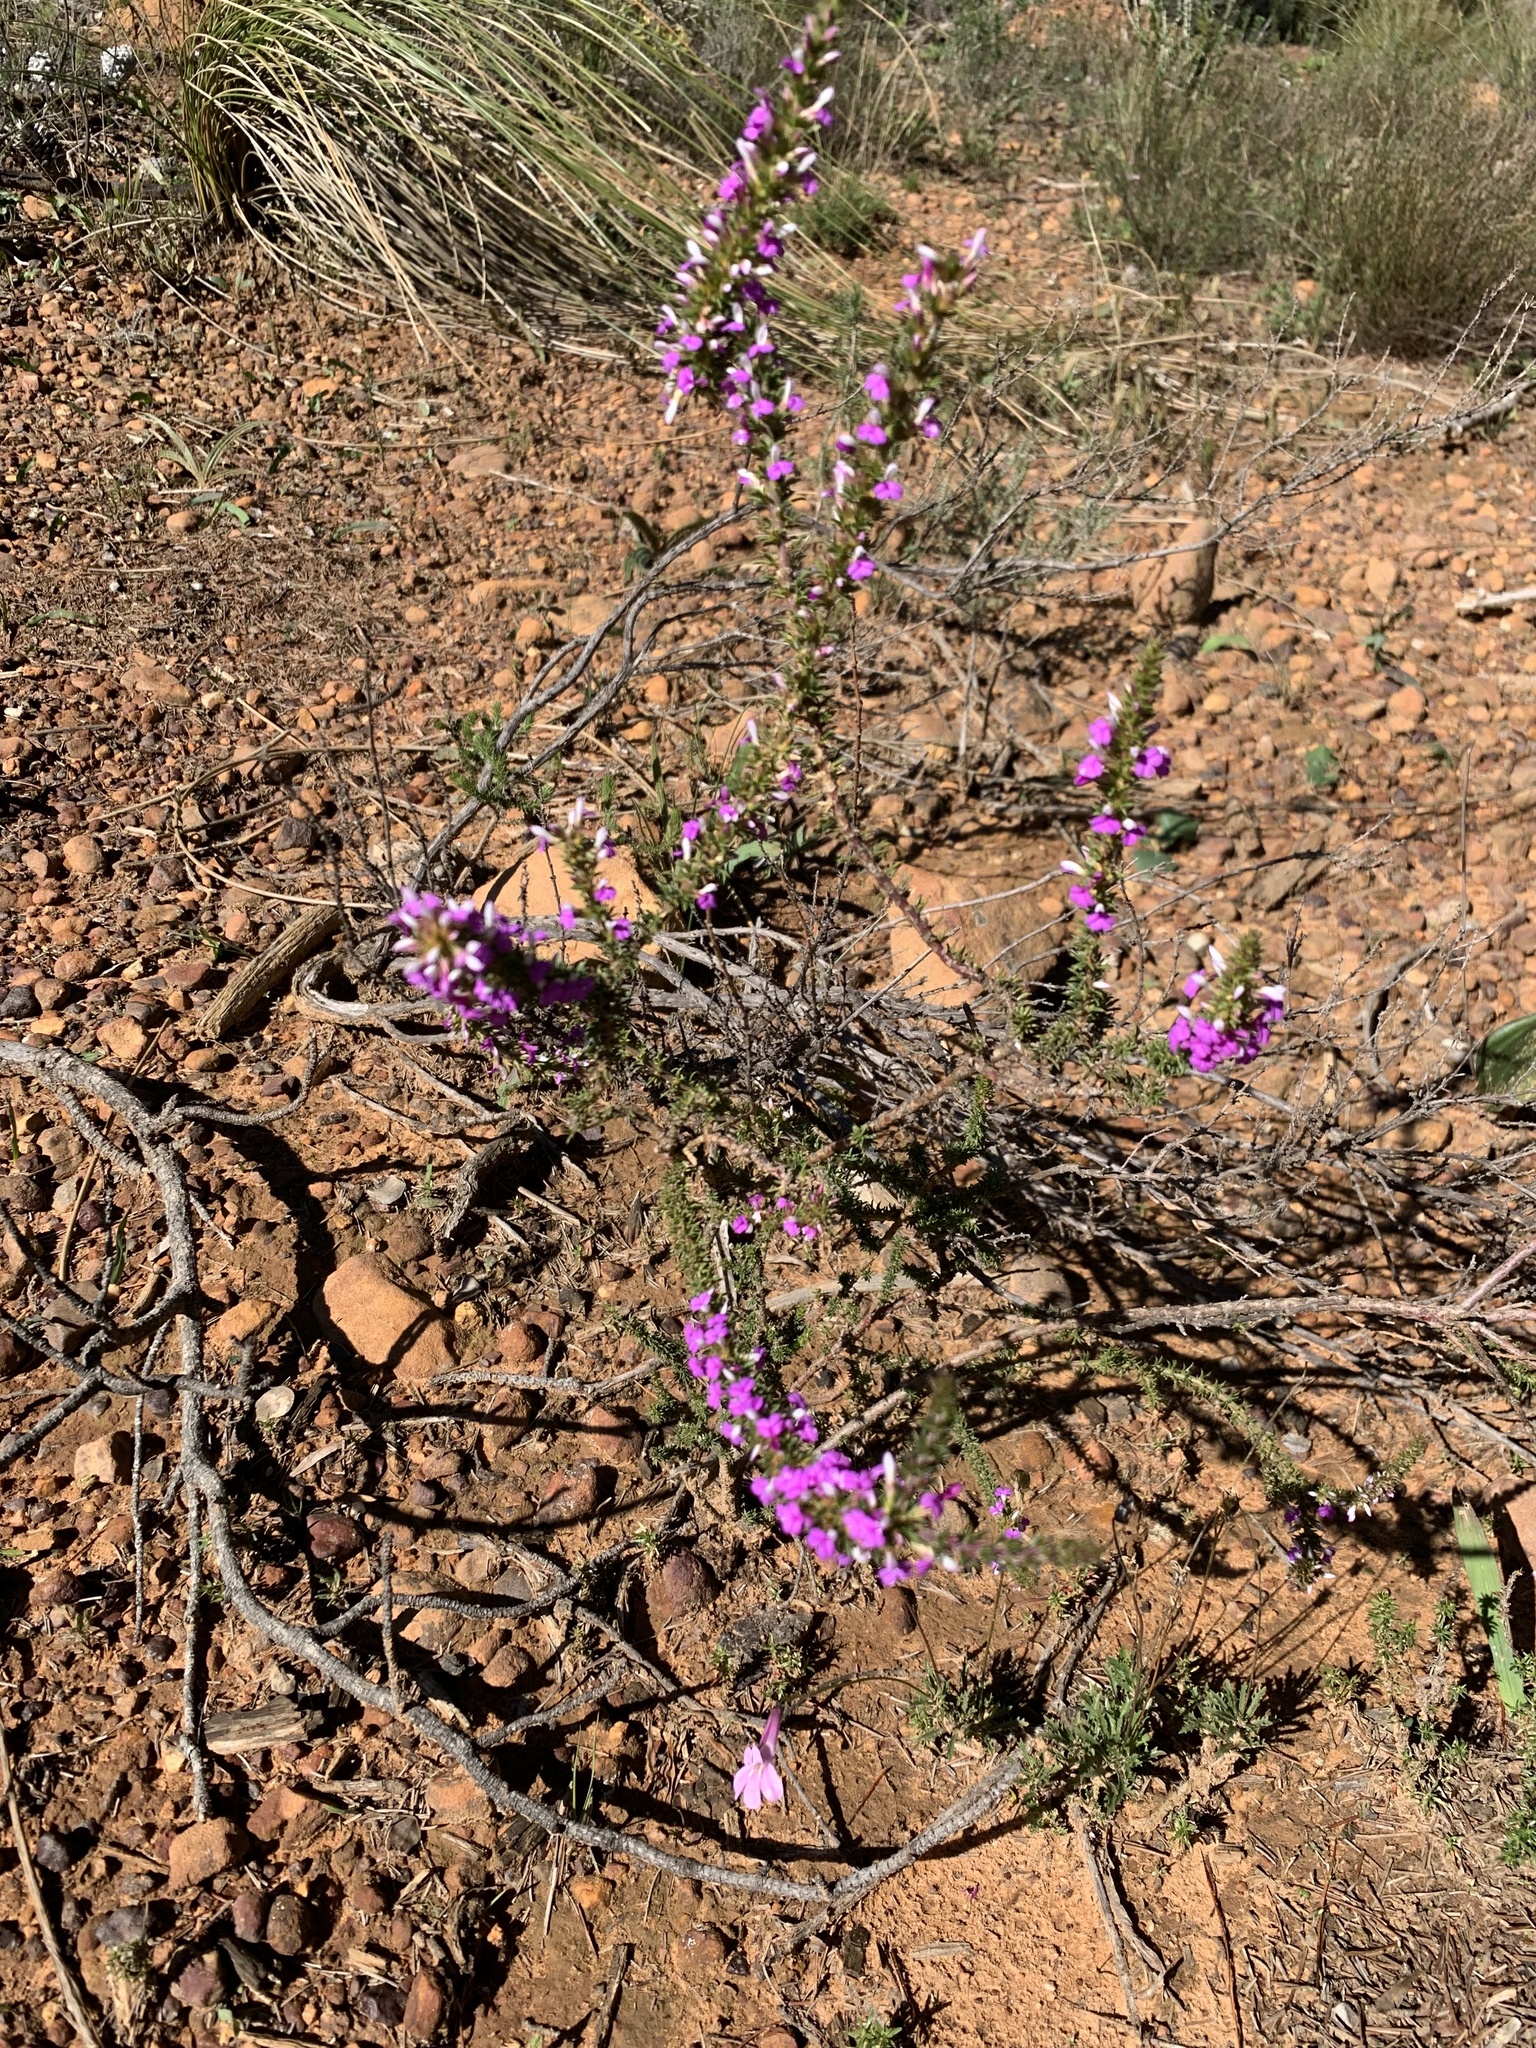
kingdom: Plantae
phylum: Tracheophyta
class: Magnoliopsida
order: Fabales
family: Polygalaceae
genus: Muraltia
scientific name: Muraltia heisteria
